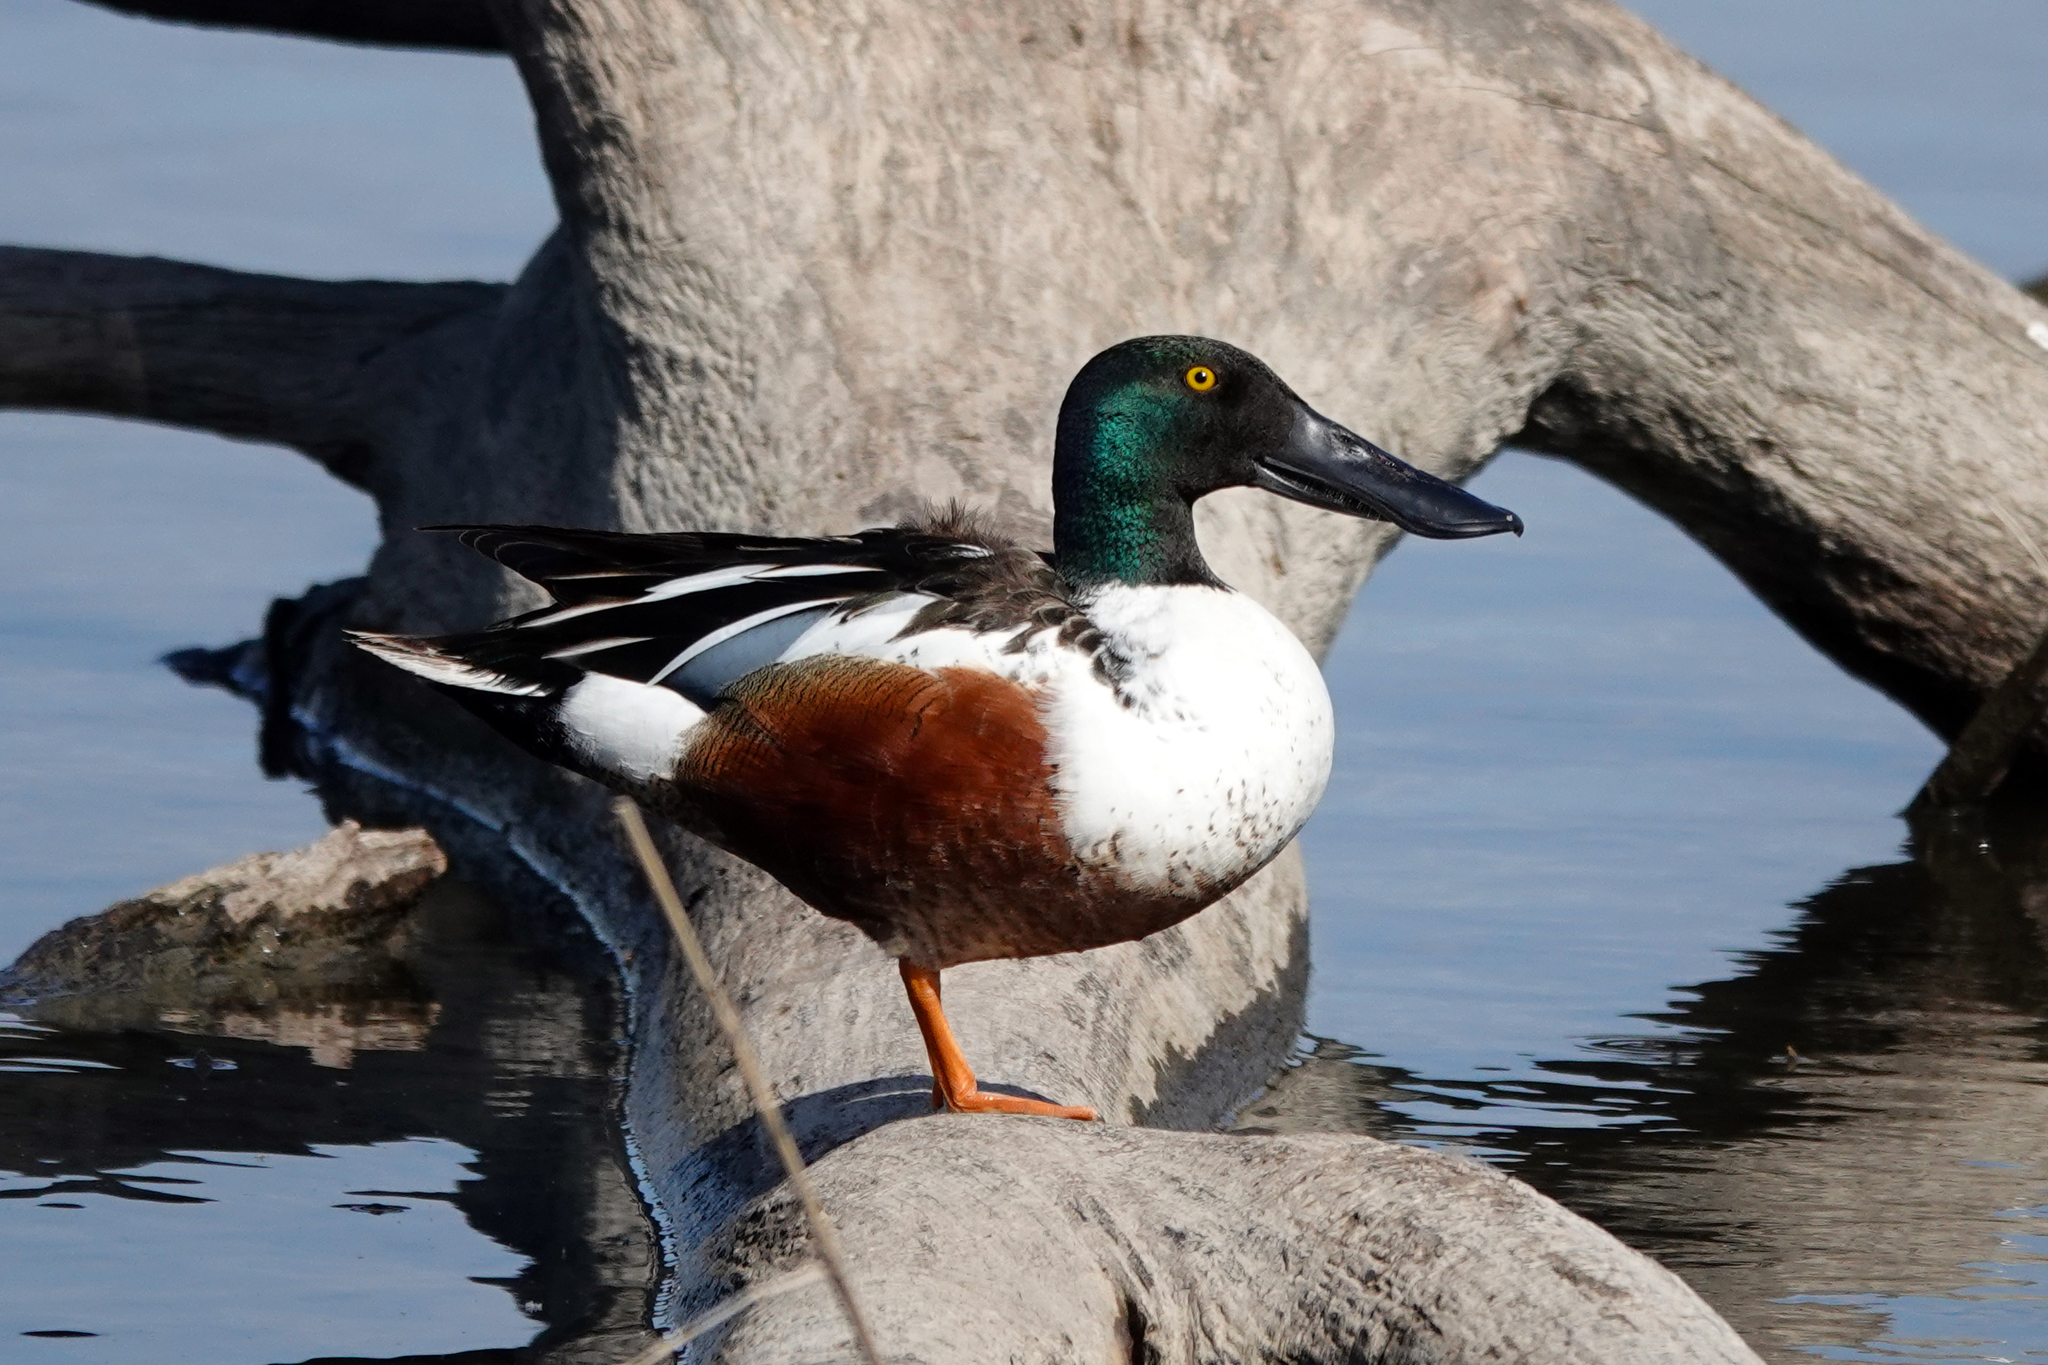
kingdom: Animalia
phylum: Chordata
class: Aves
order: Anseriformes
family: Anatidae
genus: Spatula
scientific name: Spatula clypeata
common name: Northern shoveler
